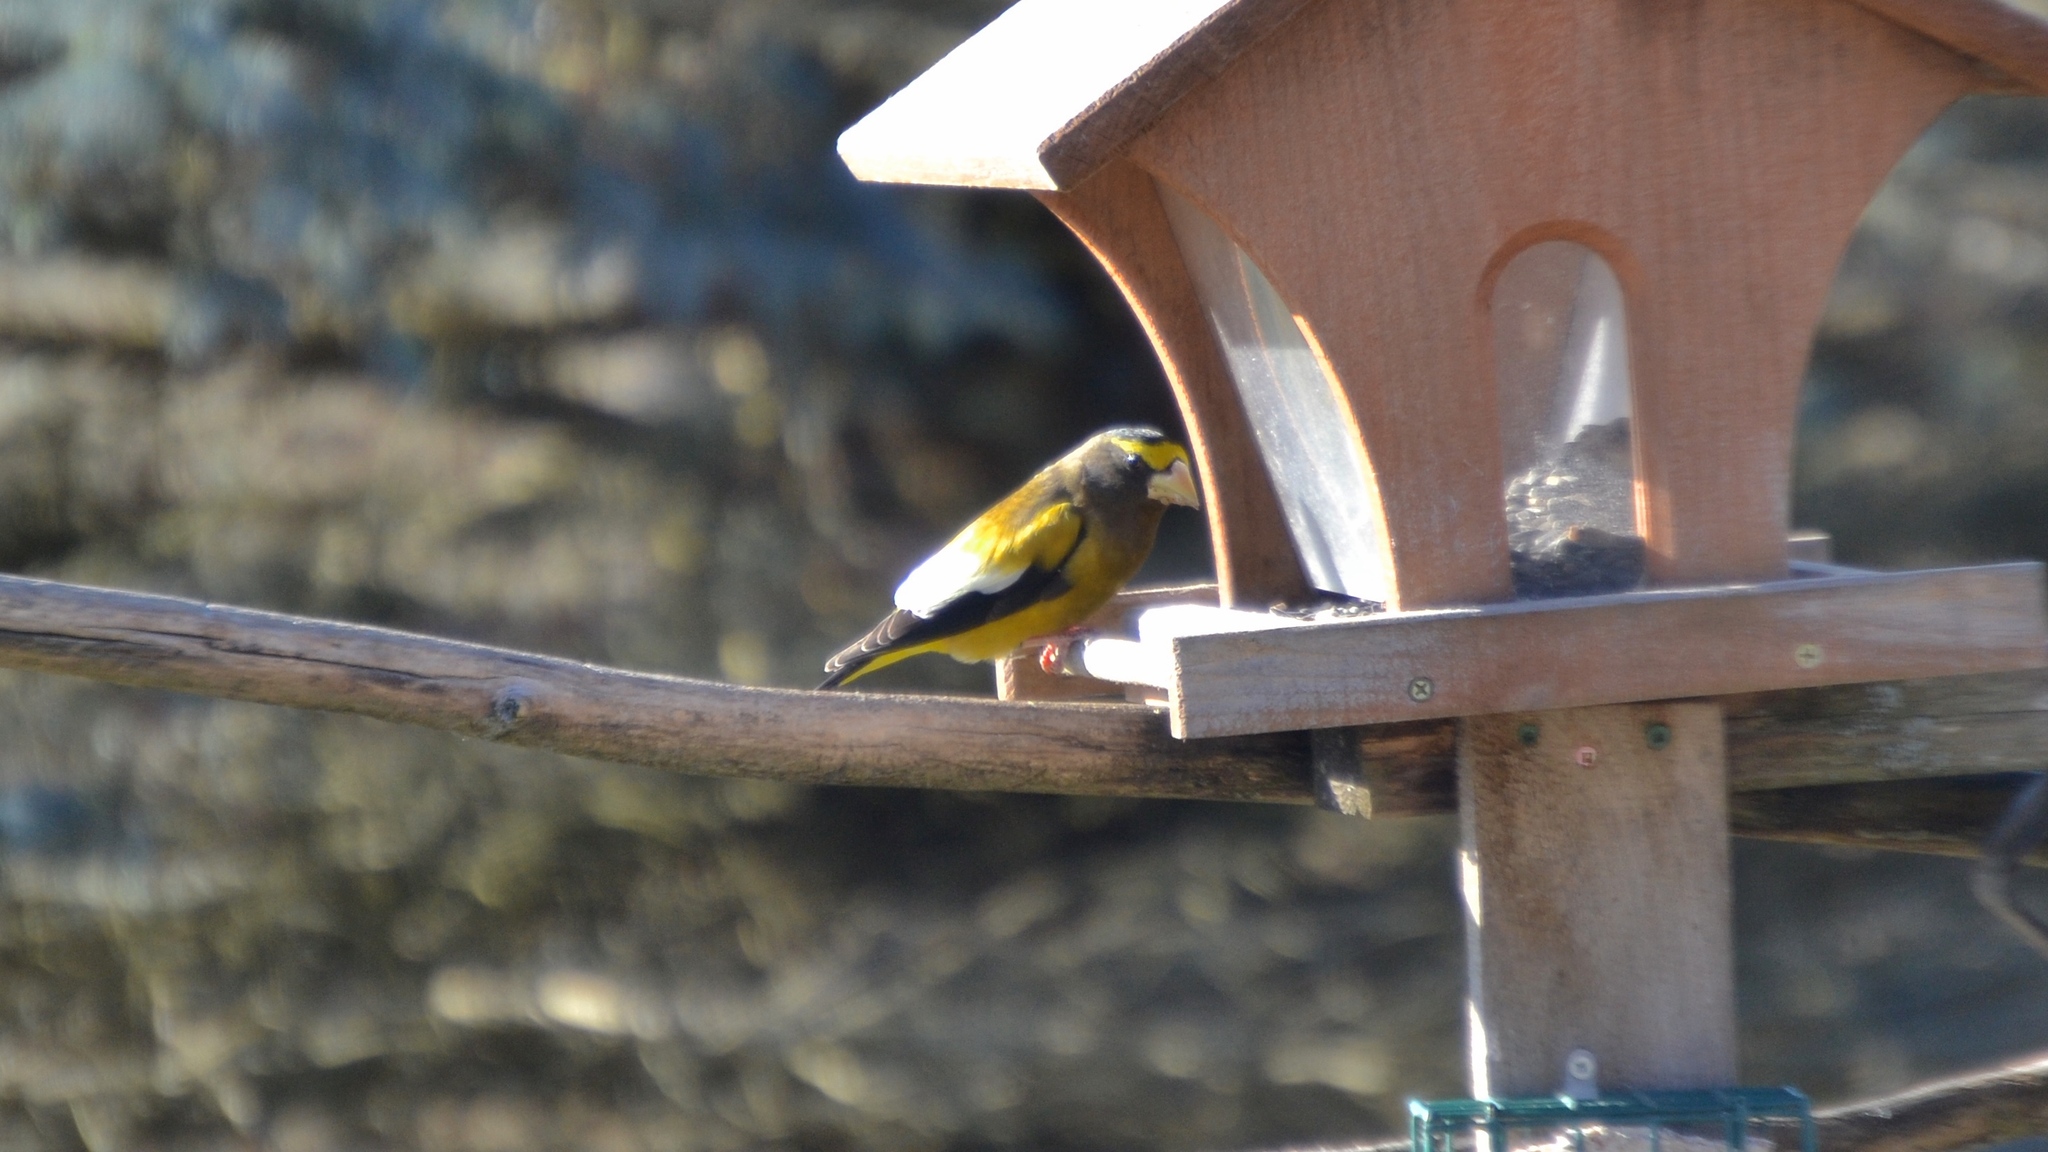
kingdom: Animalia
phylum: Chordata
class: Aves
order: Passeriformes
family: Fringillidae
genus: Hesperiphona
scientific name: Hesperiphona vespertina
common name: Evening grosbeak
